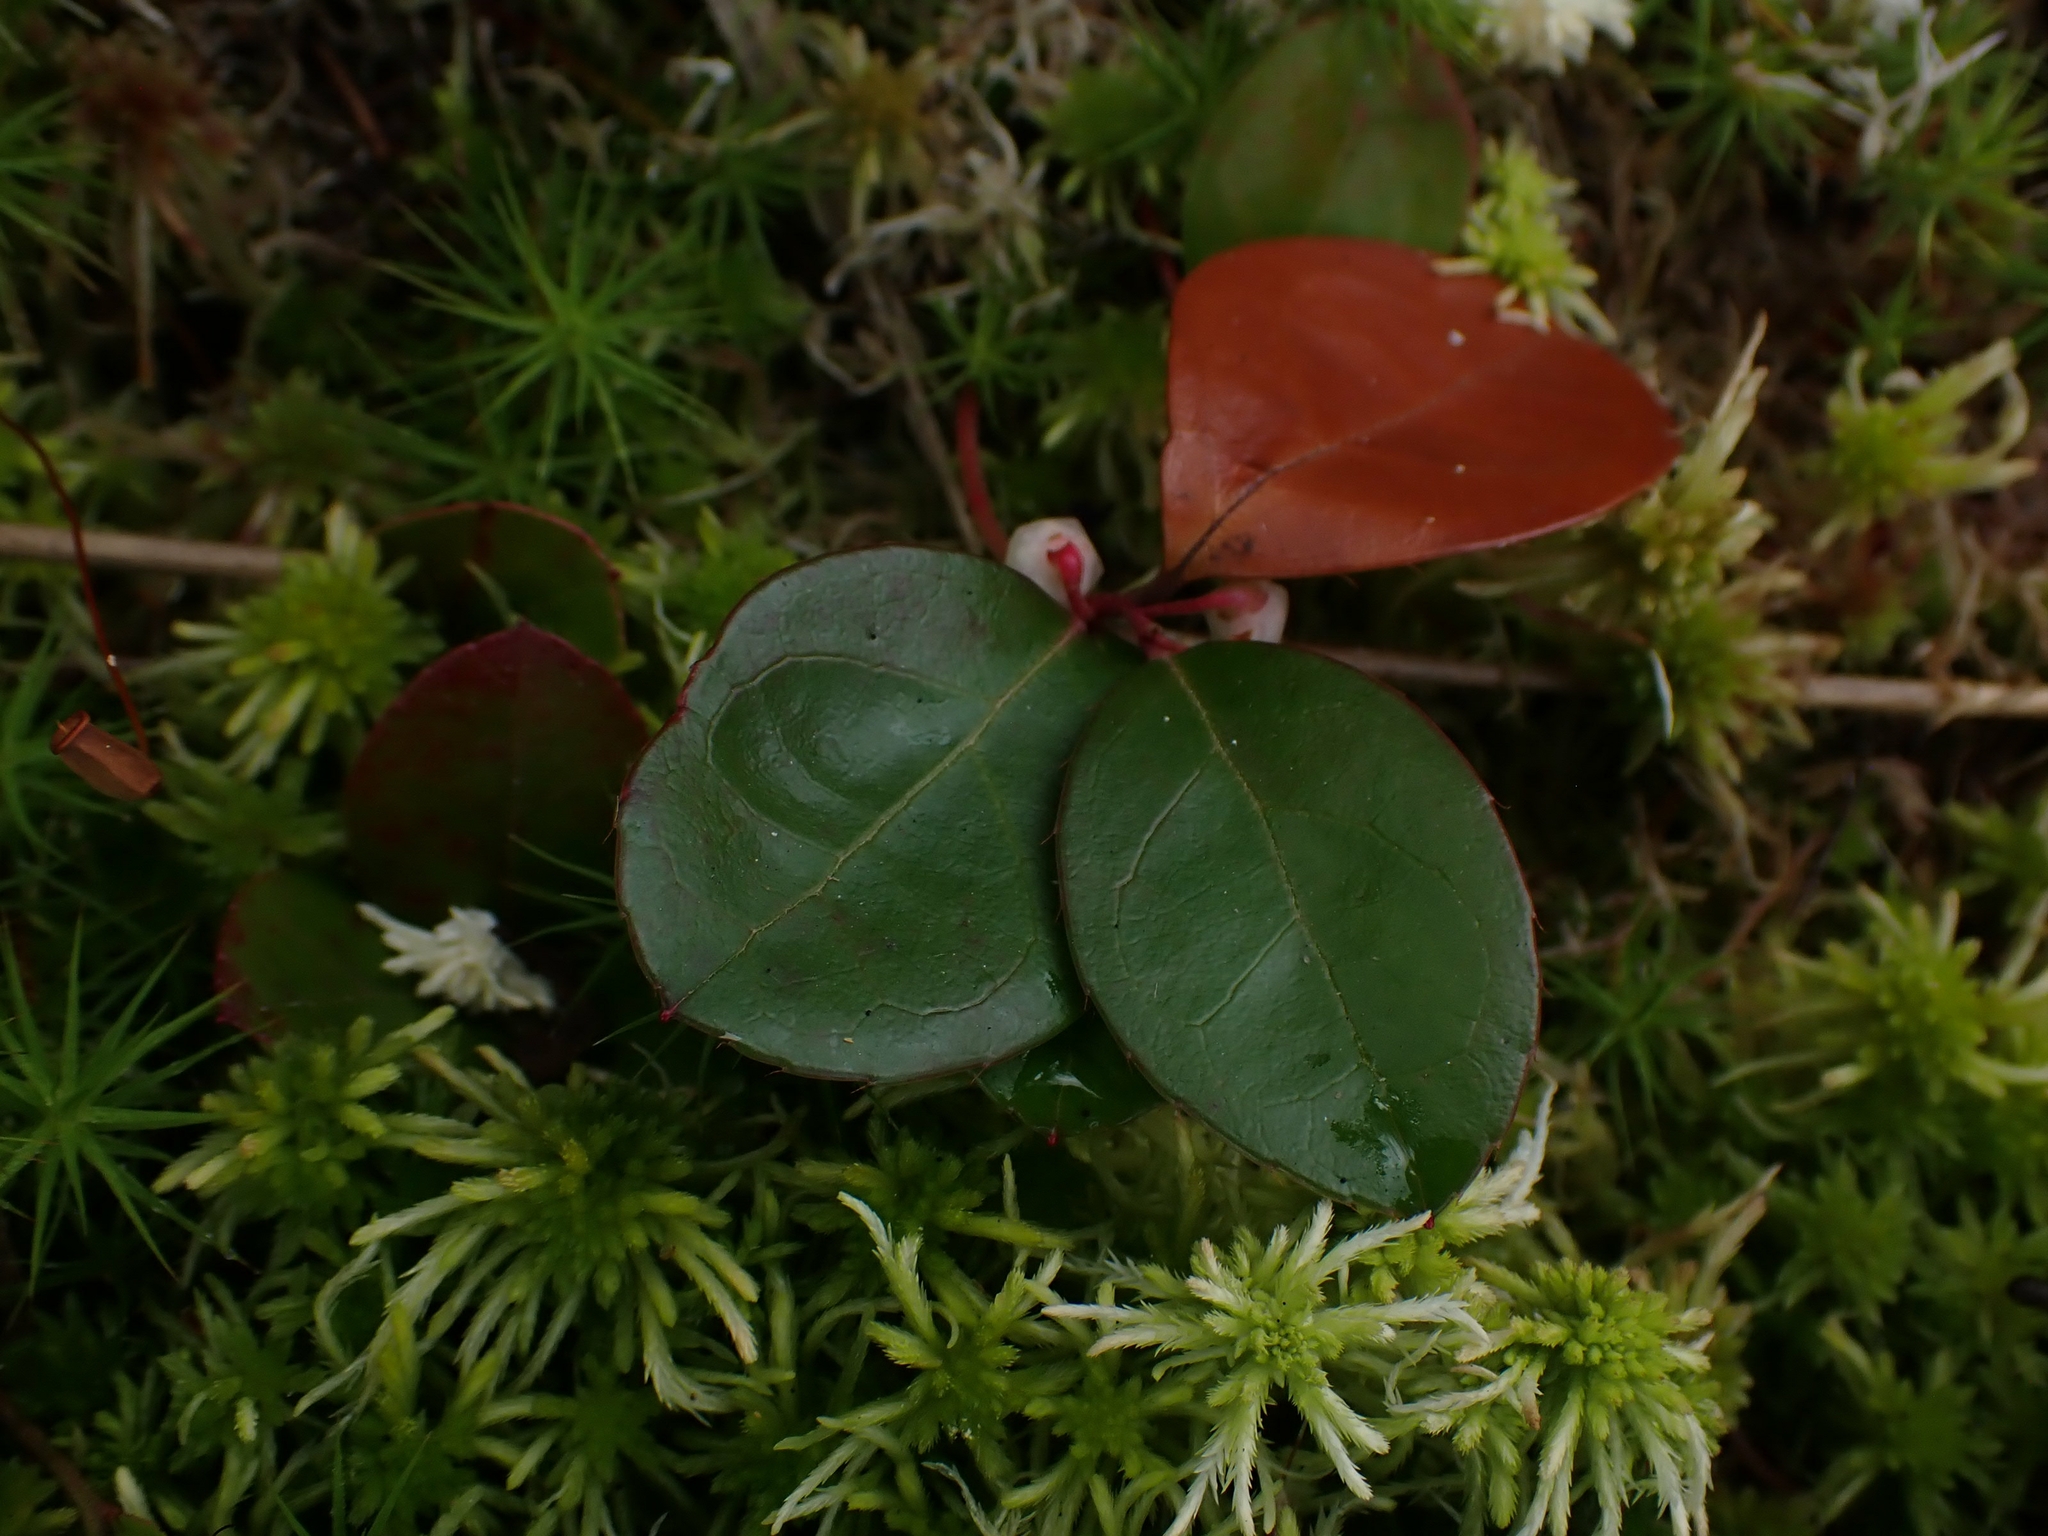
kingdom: Plantae
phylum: Tracheophyta
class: Magnoliopsida
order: Ericales
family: Ericaceae
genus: Gaultheria
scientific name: Gaultheria procumbens
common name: Checkerberry
